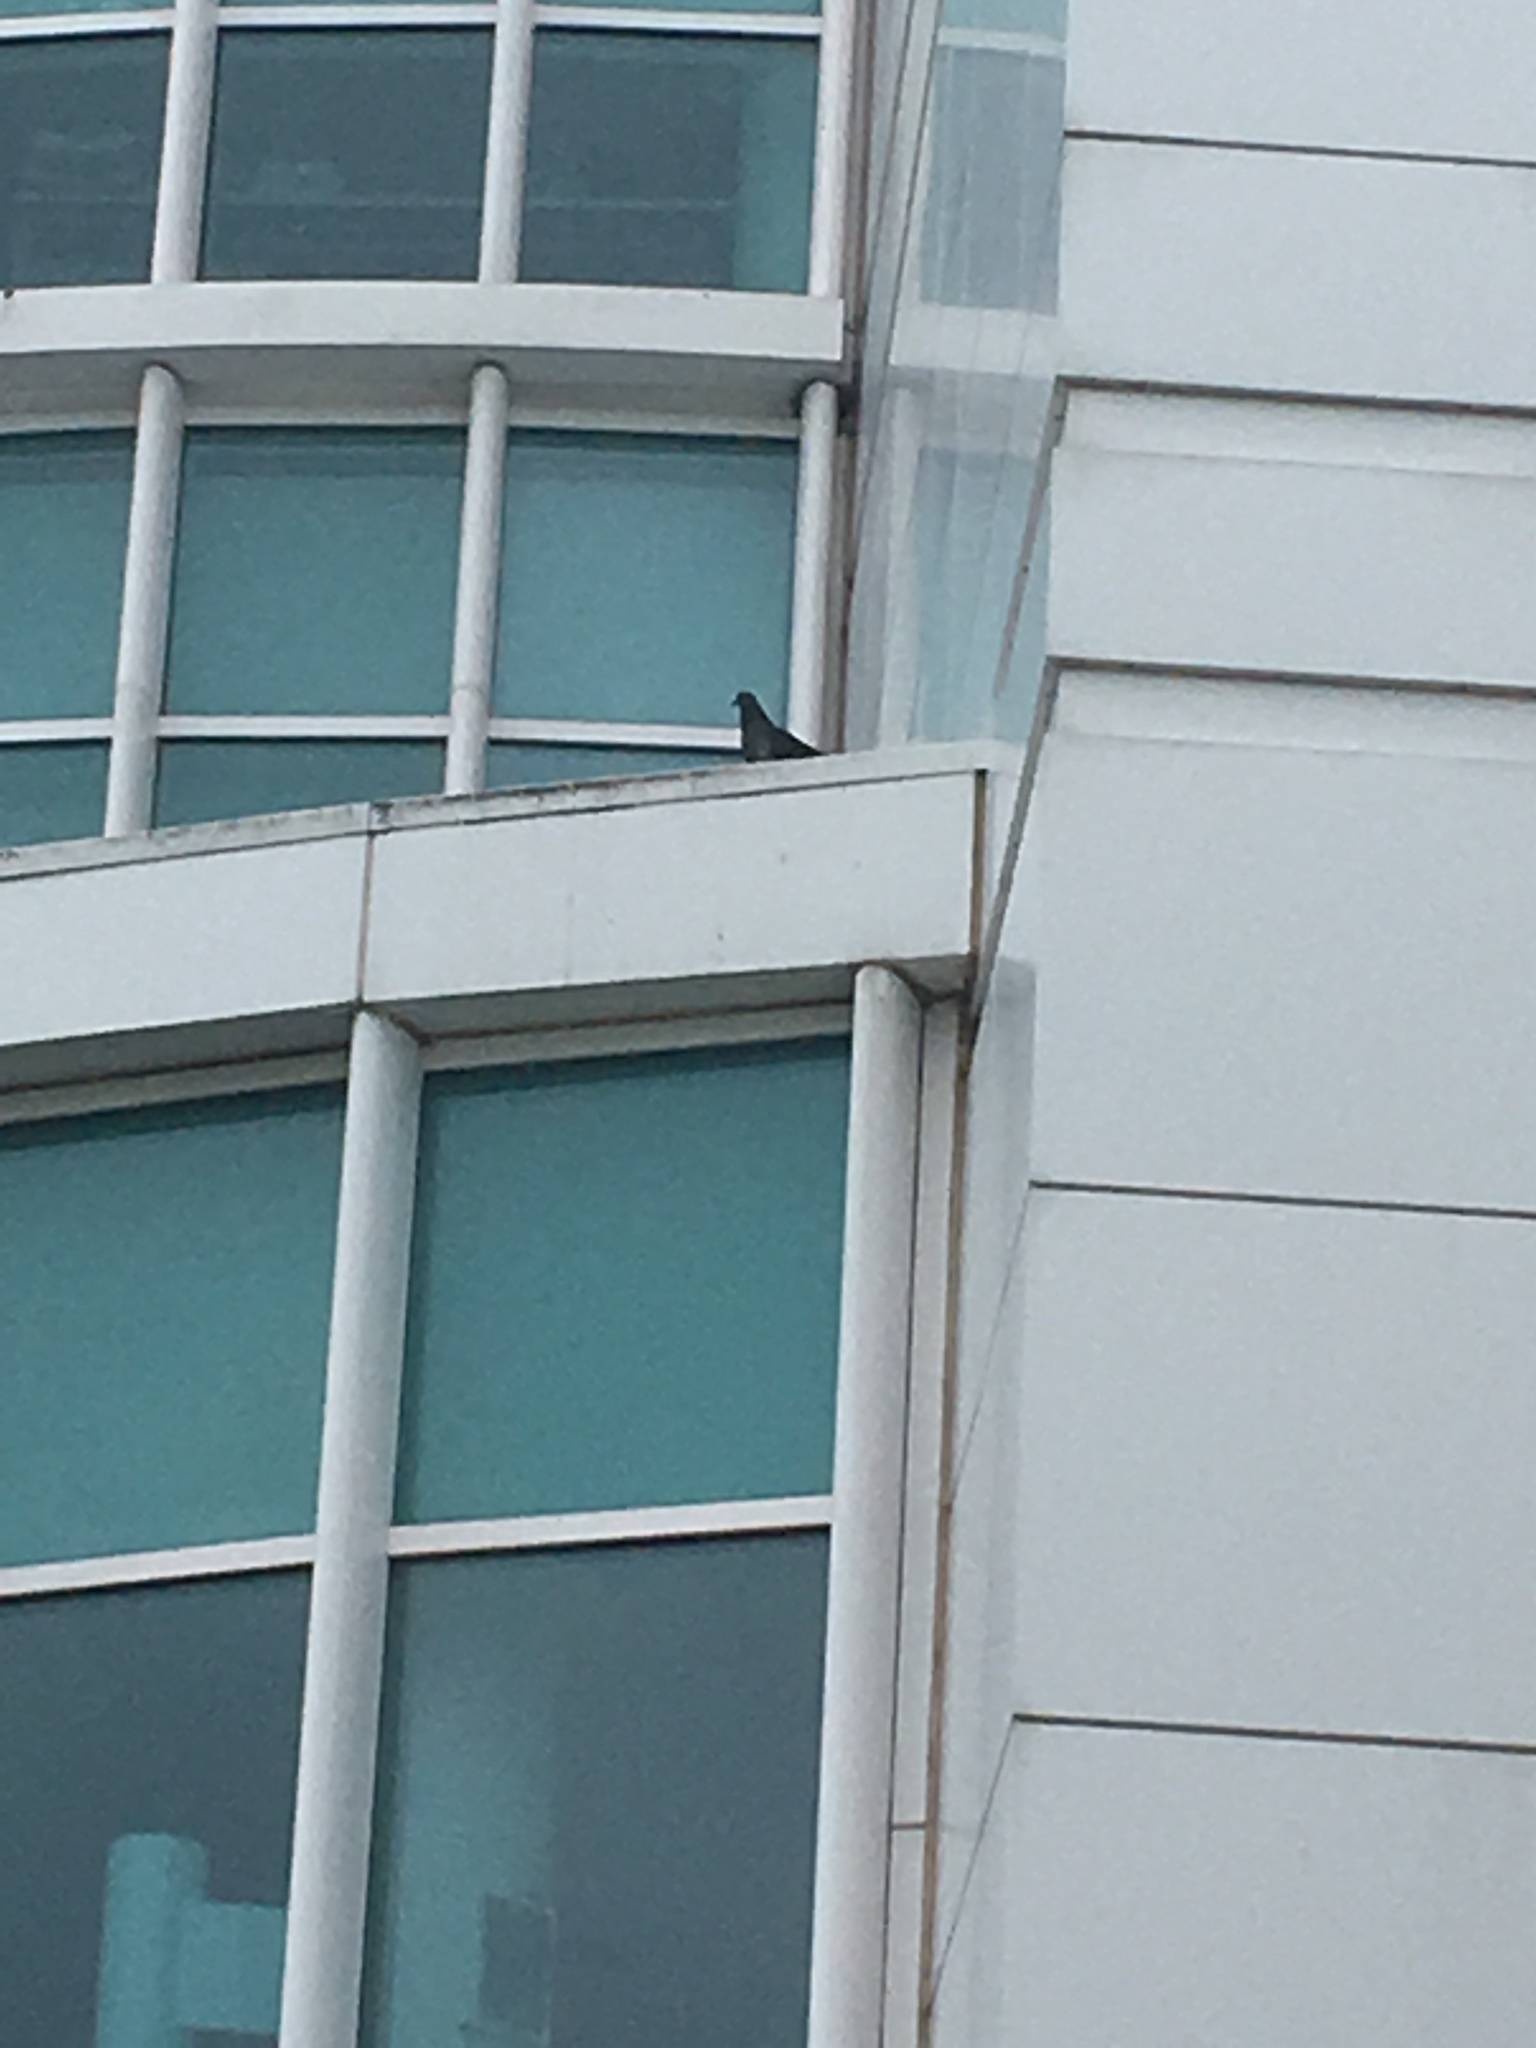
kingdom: Animalia
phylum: Chordata
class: Aves
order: Columbiformes
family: Columbidae
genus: Columba
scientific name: Columba livia
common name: Rock pigeon
